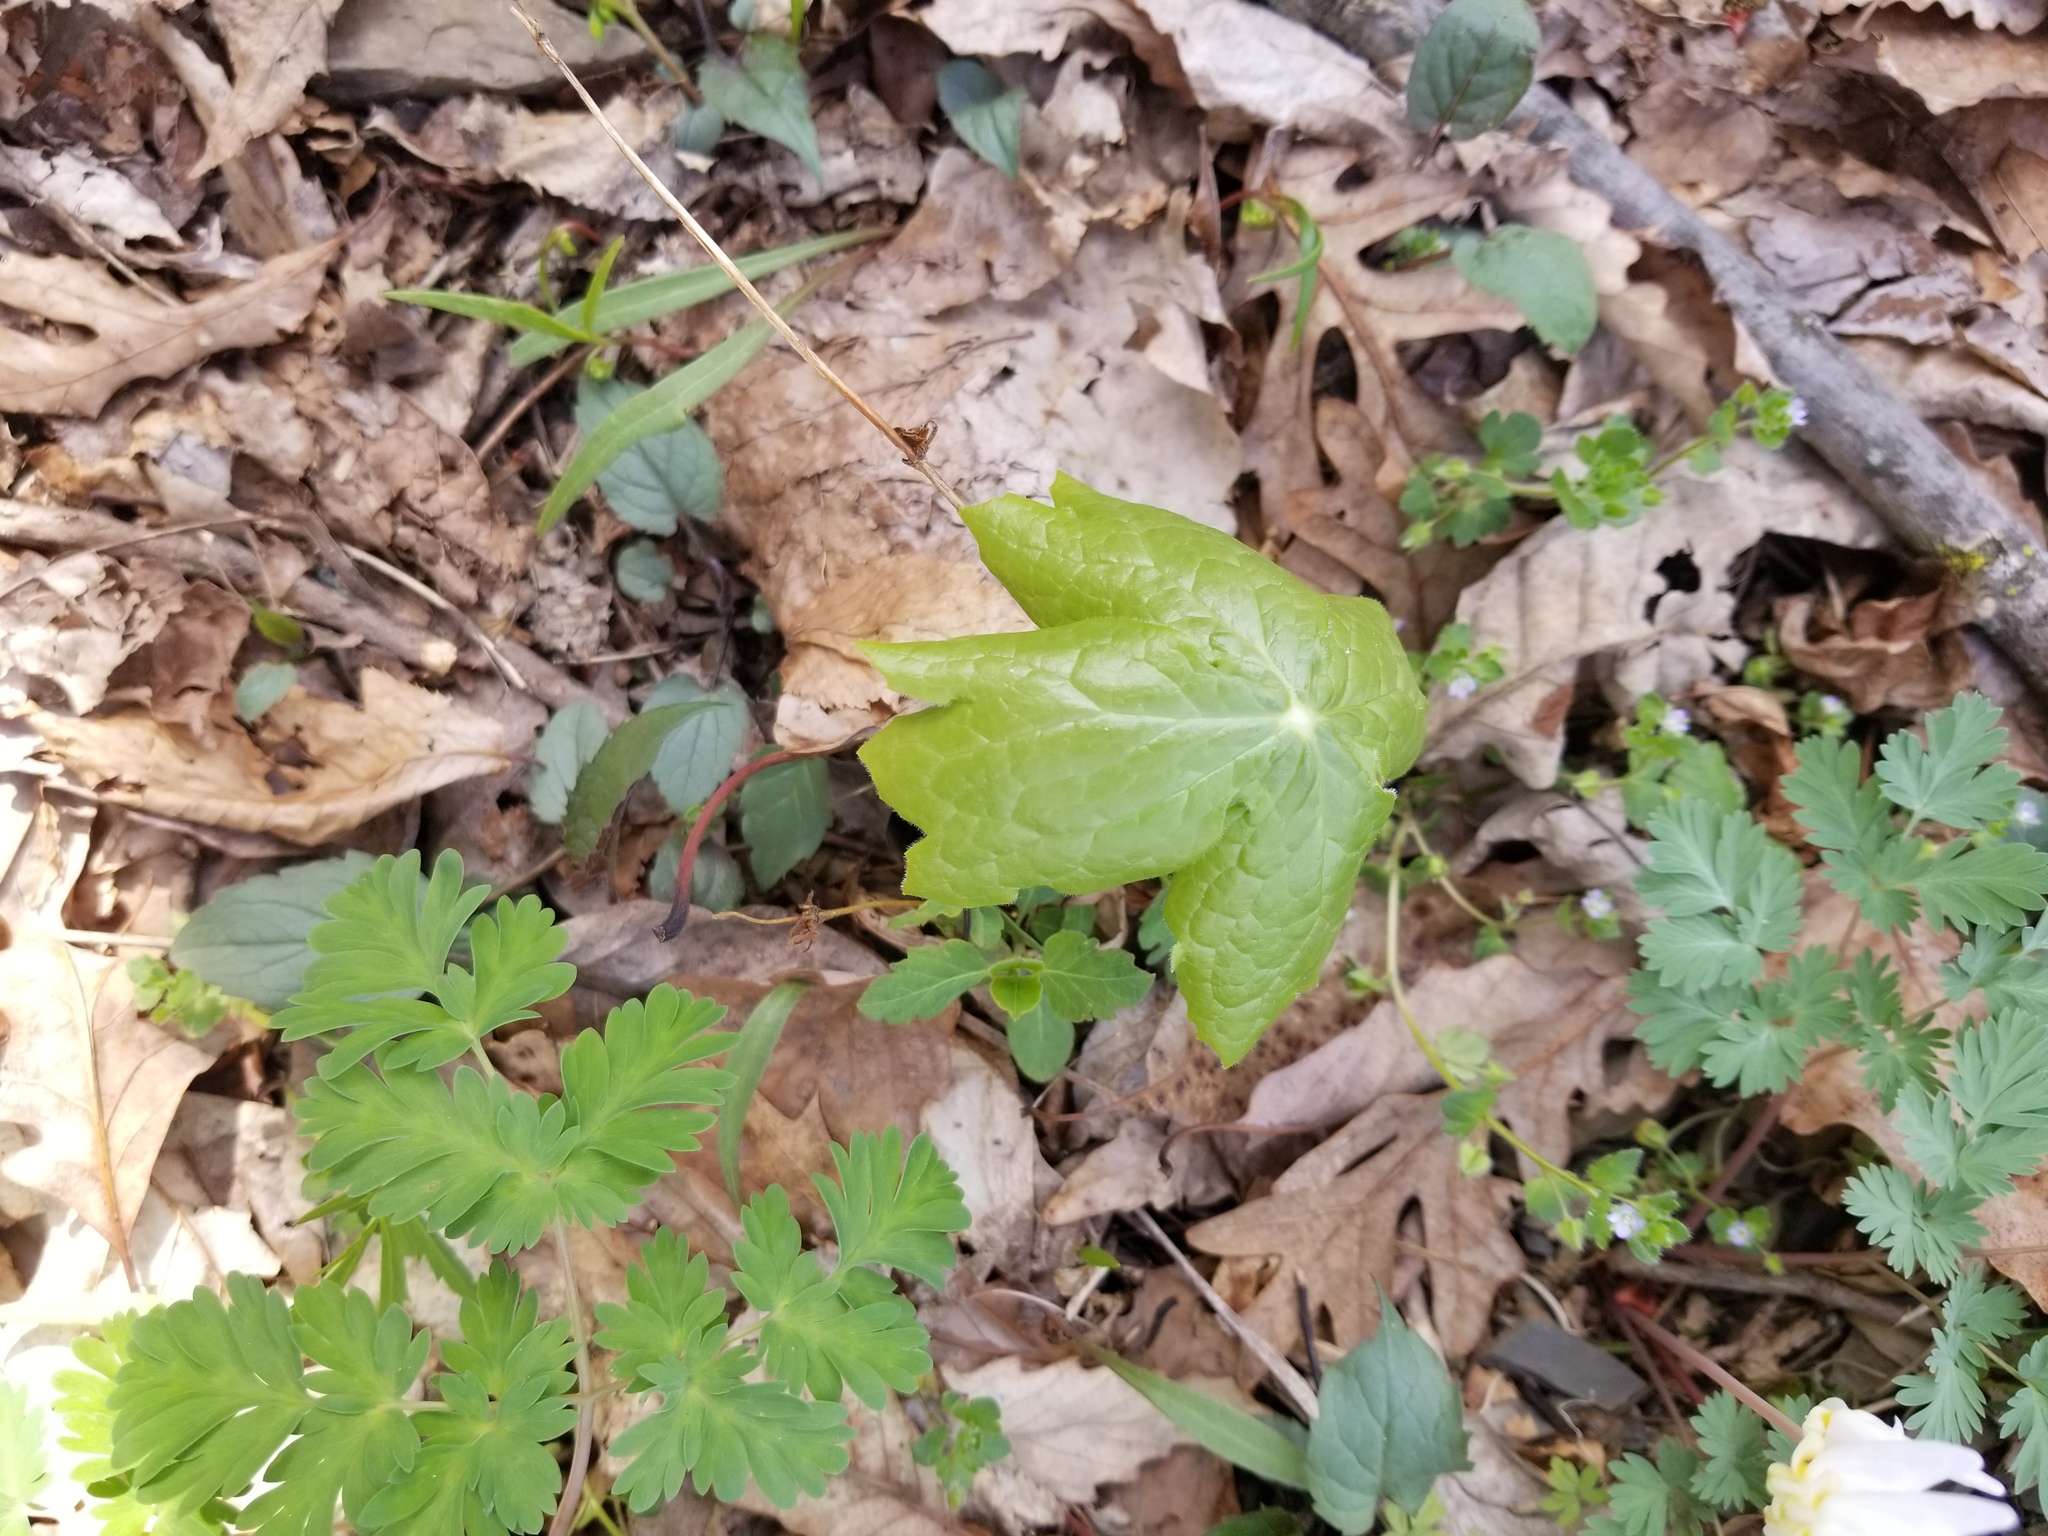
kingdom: Plantae
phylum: Tracheophyta
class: Magnoliopsida
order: Ranunculales
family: Berberidaceae
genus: Podophyllum
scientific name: Podophyllum peltatum
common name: Wild mandrake
